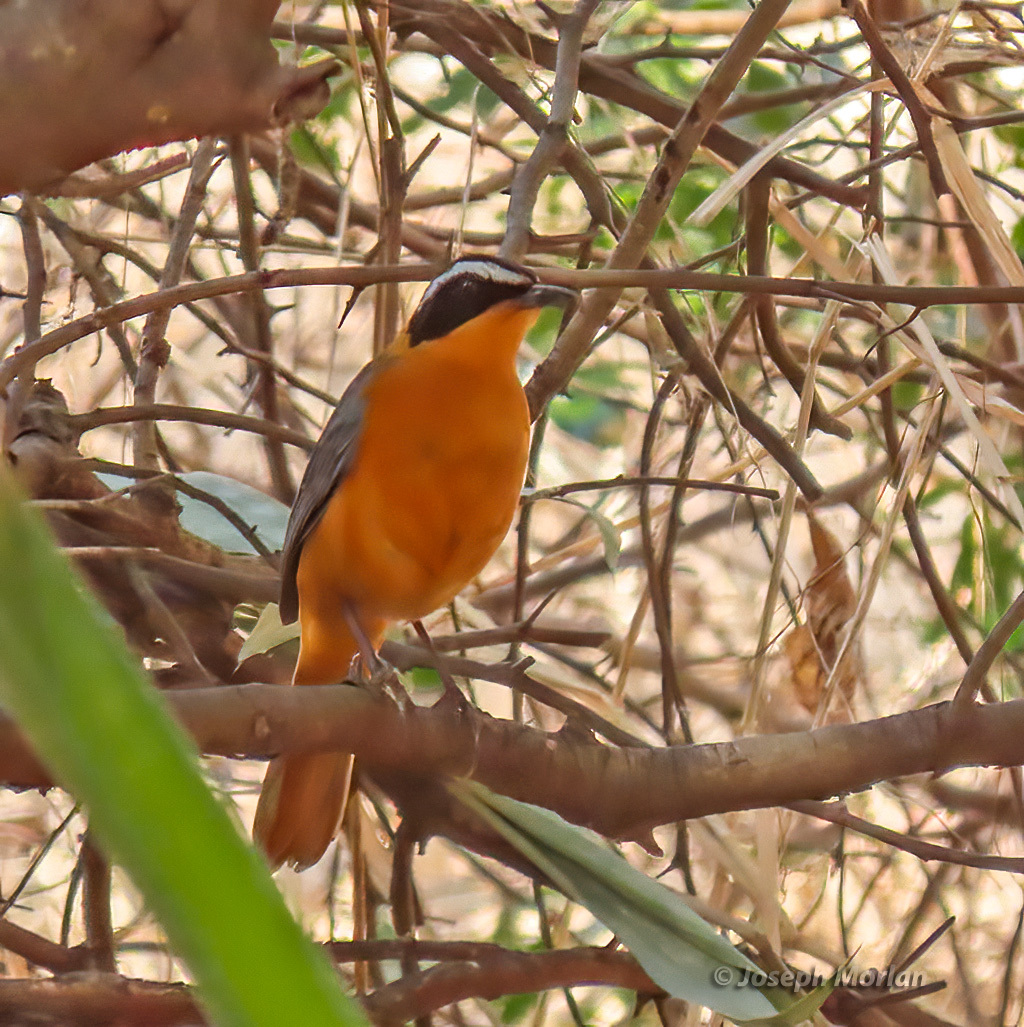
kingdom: Animalia
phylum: Chordata
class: Aves
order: Passeriformes
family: Muscicapidae
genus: Cossypha
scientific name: Cossypha heuglini
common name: White-browed robin-chat
